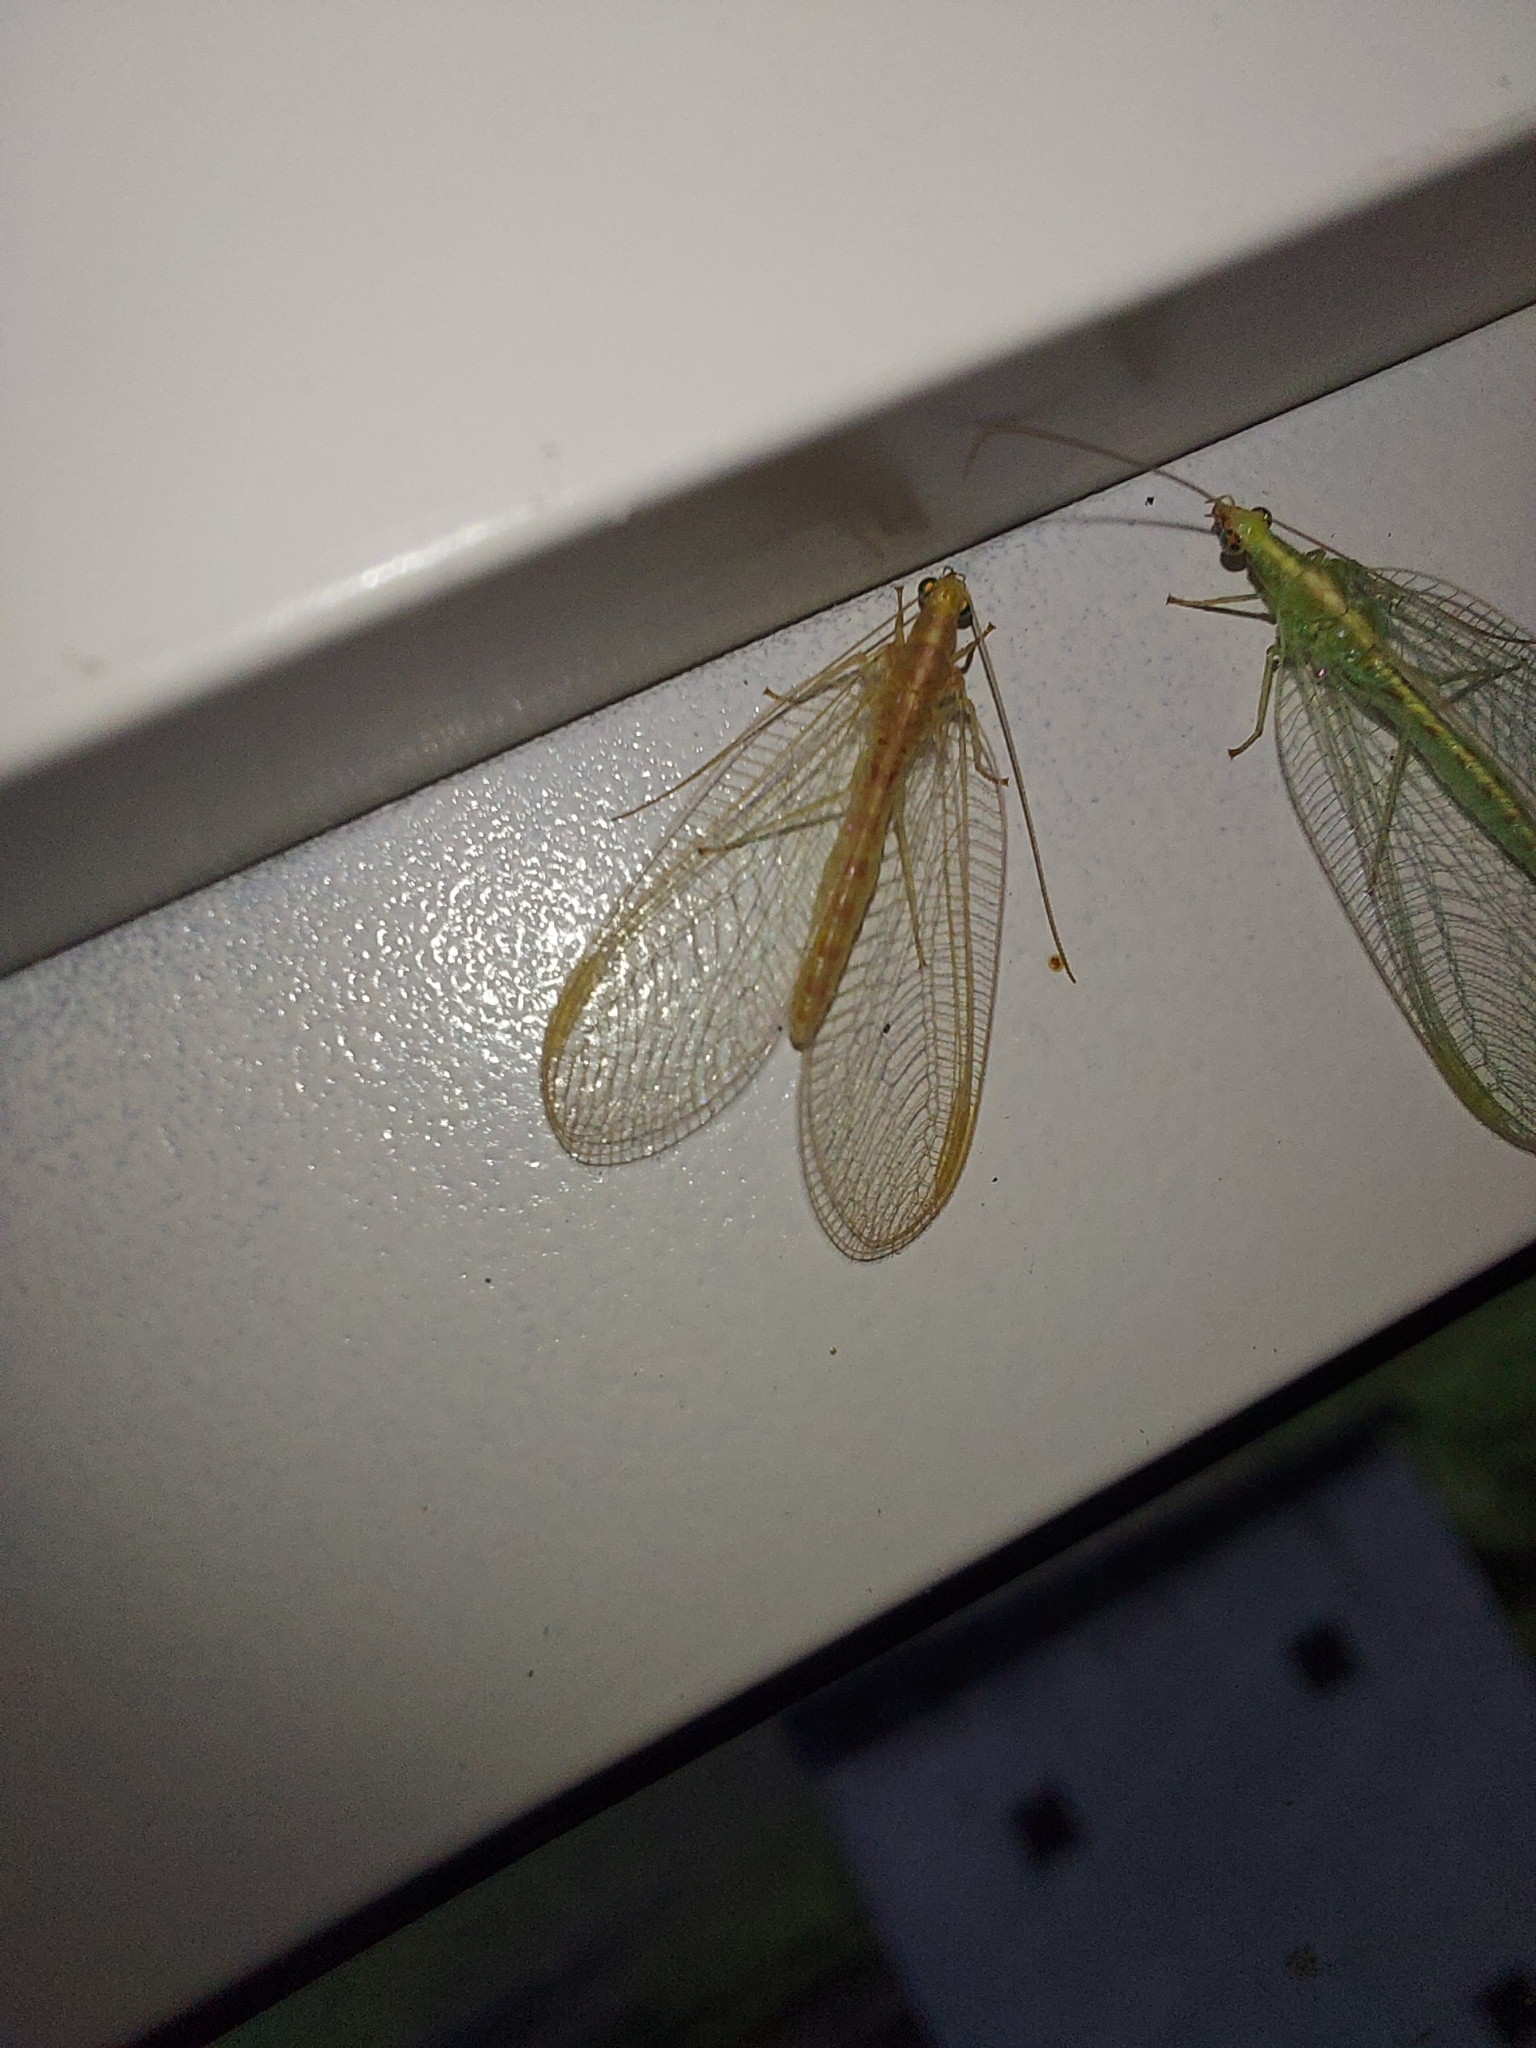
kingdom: Animalia
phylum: Arthropoda
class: Insecta
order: Neuroptera
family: Chrysopidae
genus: Chrysoperla
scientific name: Chrysoperla carnea
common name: Common green lacewing
